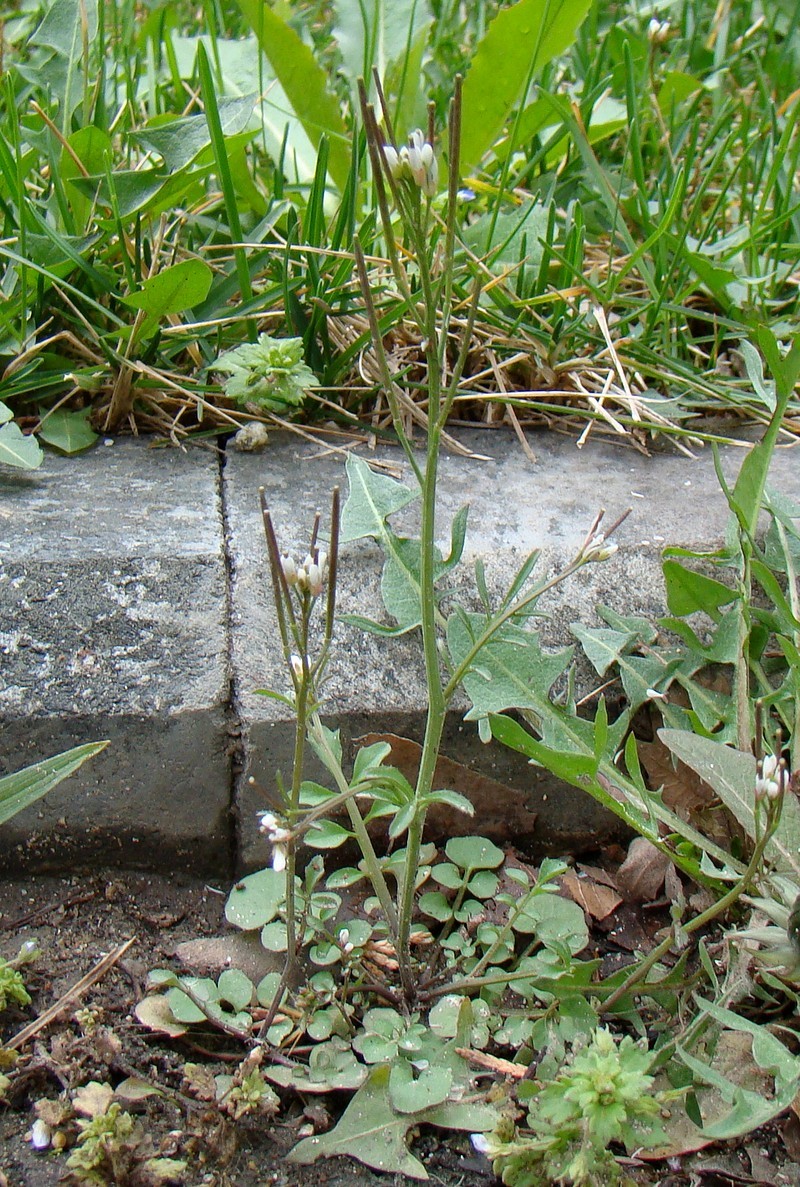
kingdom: Plantae
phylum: Tracheophyta
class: Magnoliopsida
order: Brassicales
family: Brassicaceae
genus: Cardamine
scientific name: Cardamine hirsuta
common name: Hairy bittercress
